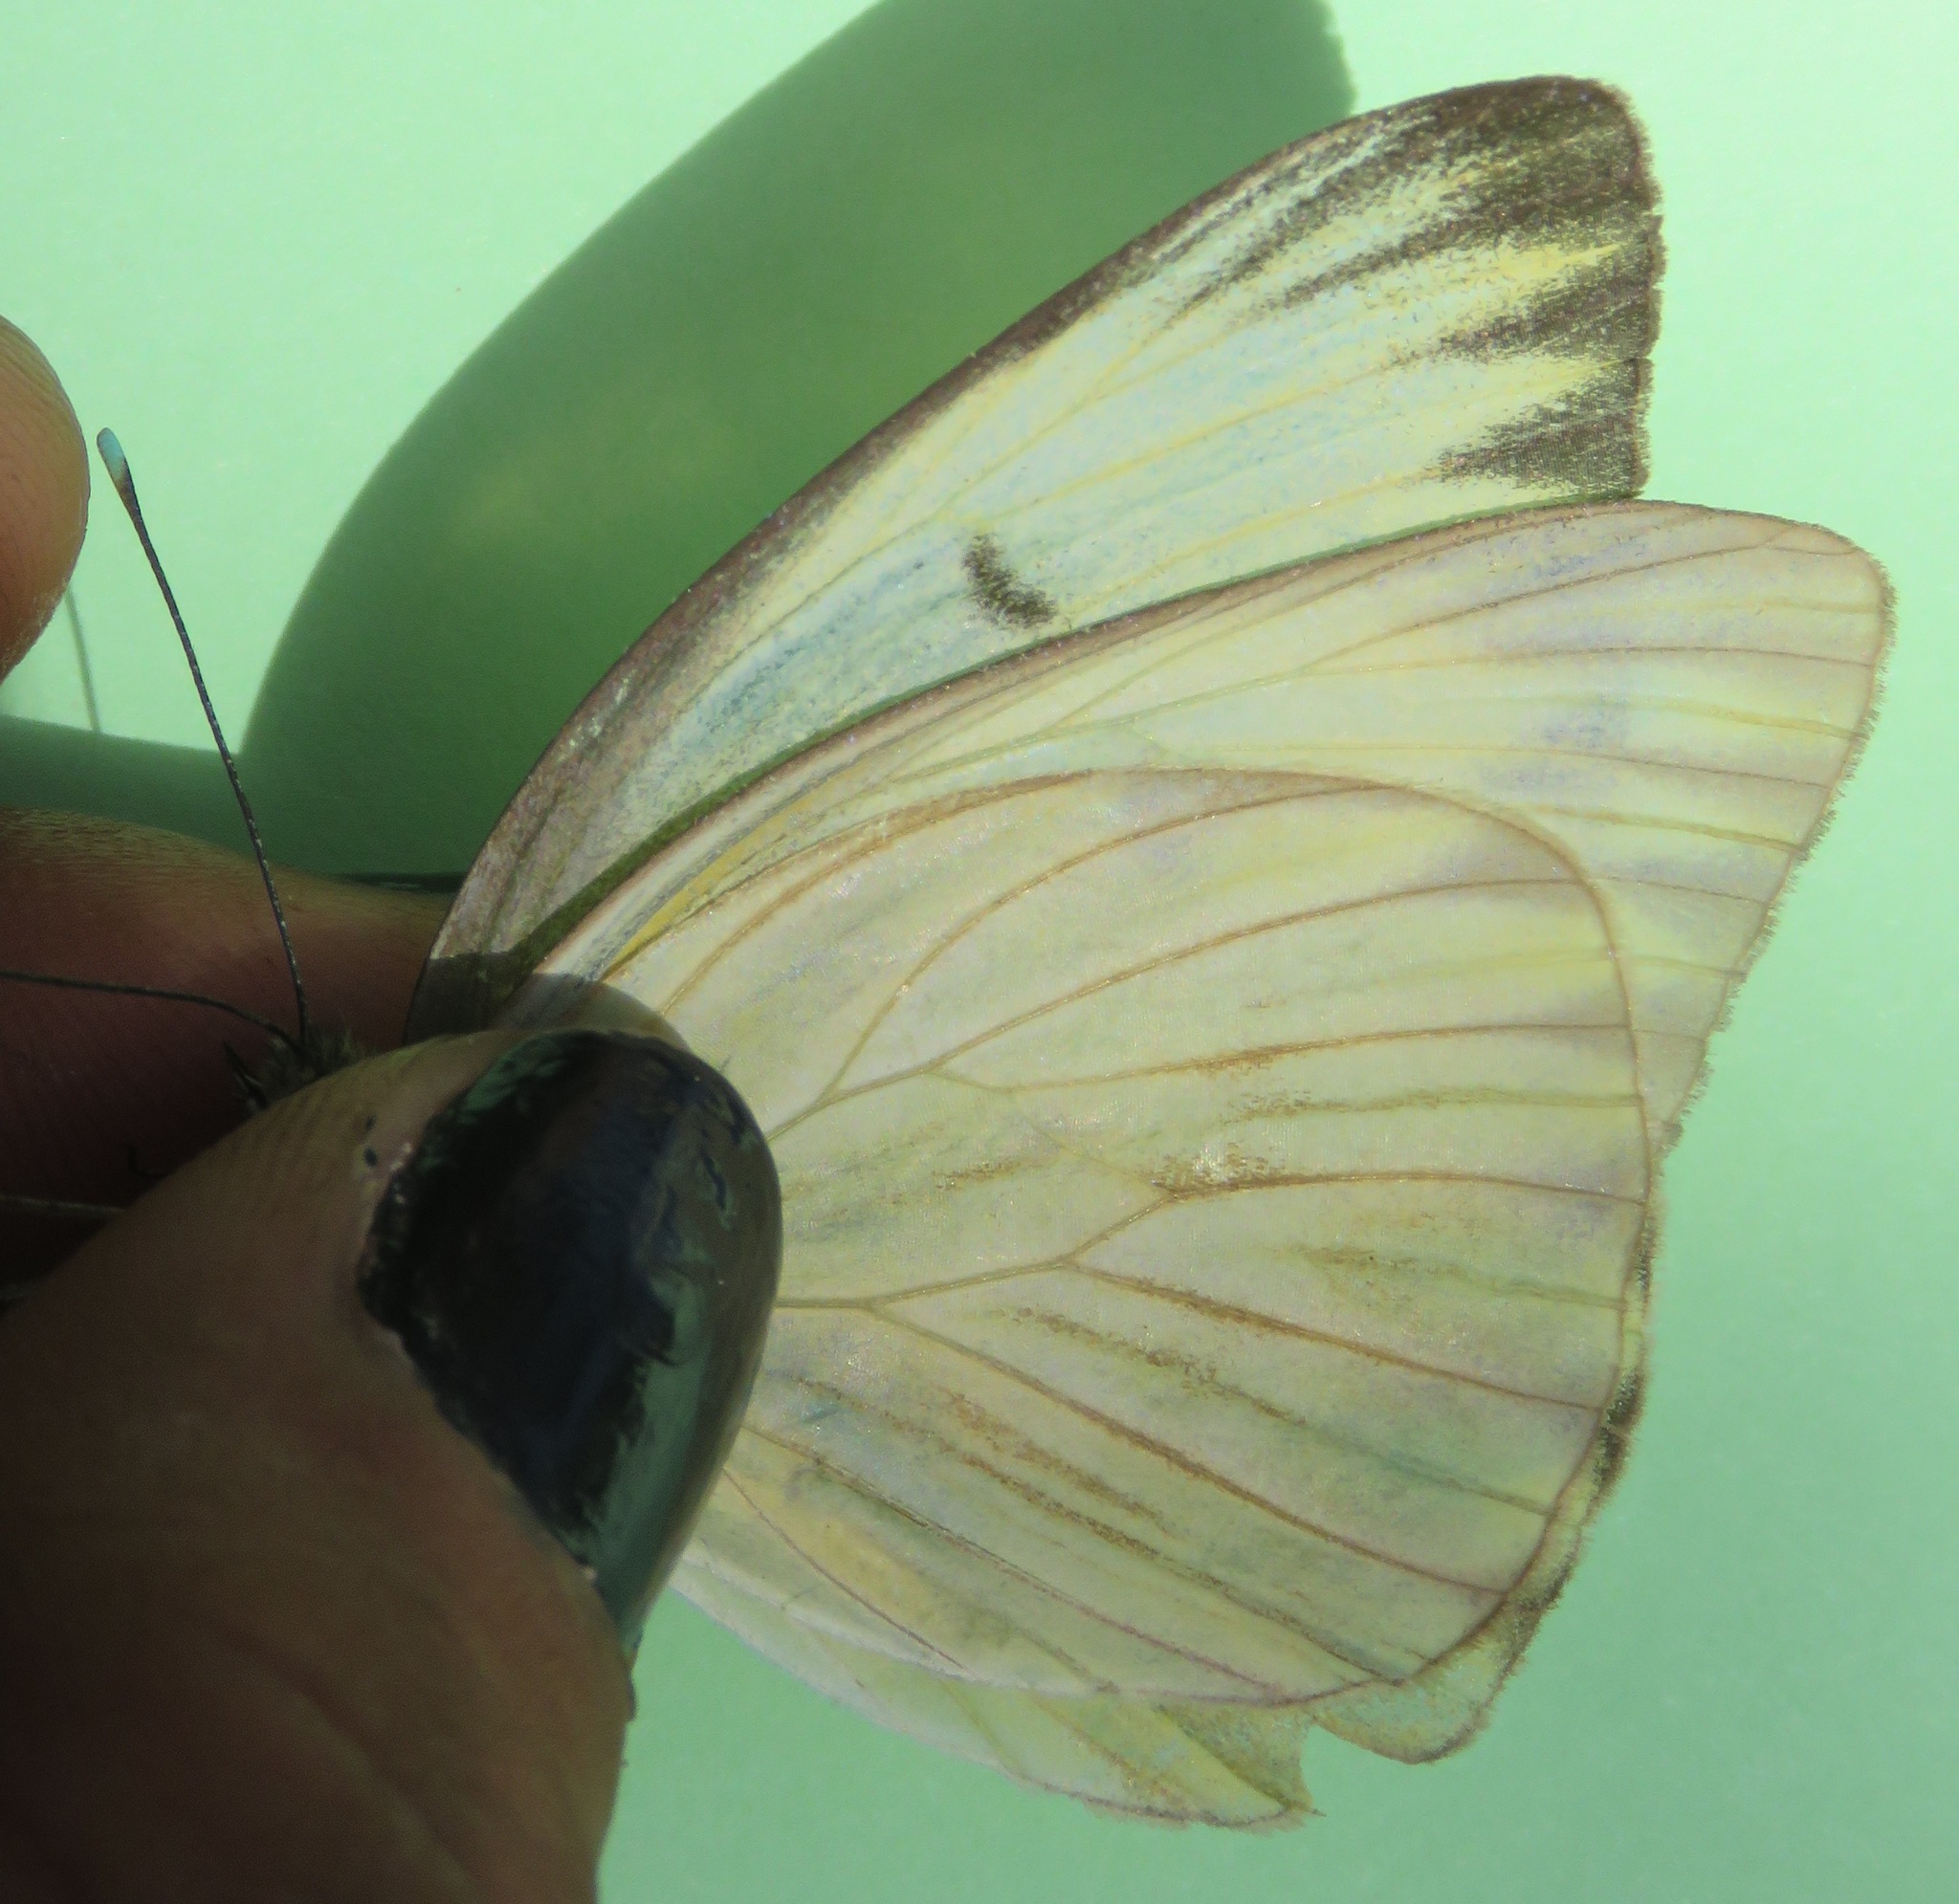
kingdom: Animalia
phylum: Arthropoda
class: Insecta
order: Lepidoptera
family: Pieridae
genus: Ascia
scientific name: Ascia monuste
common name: Great southern white
